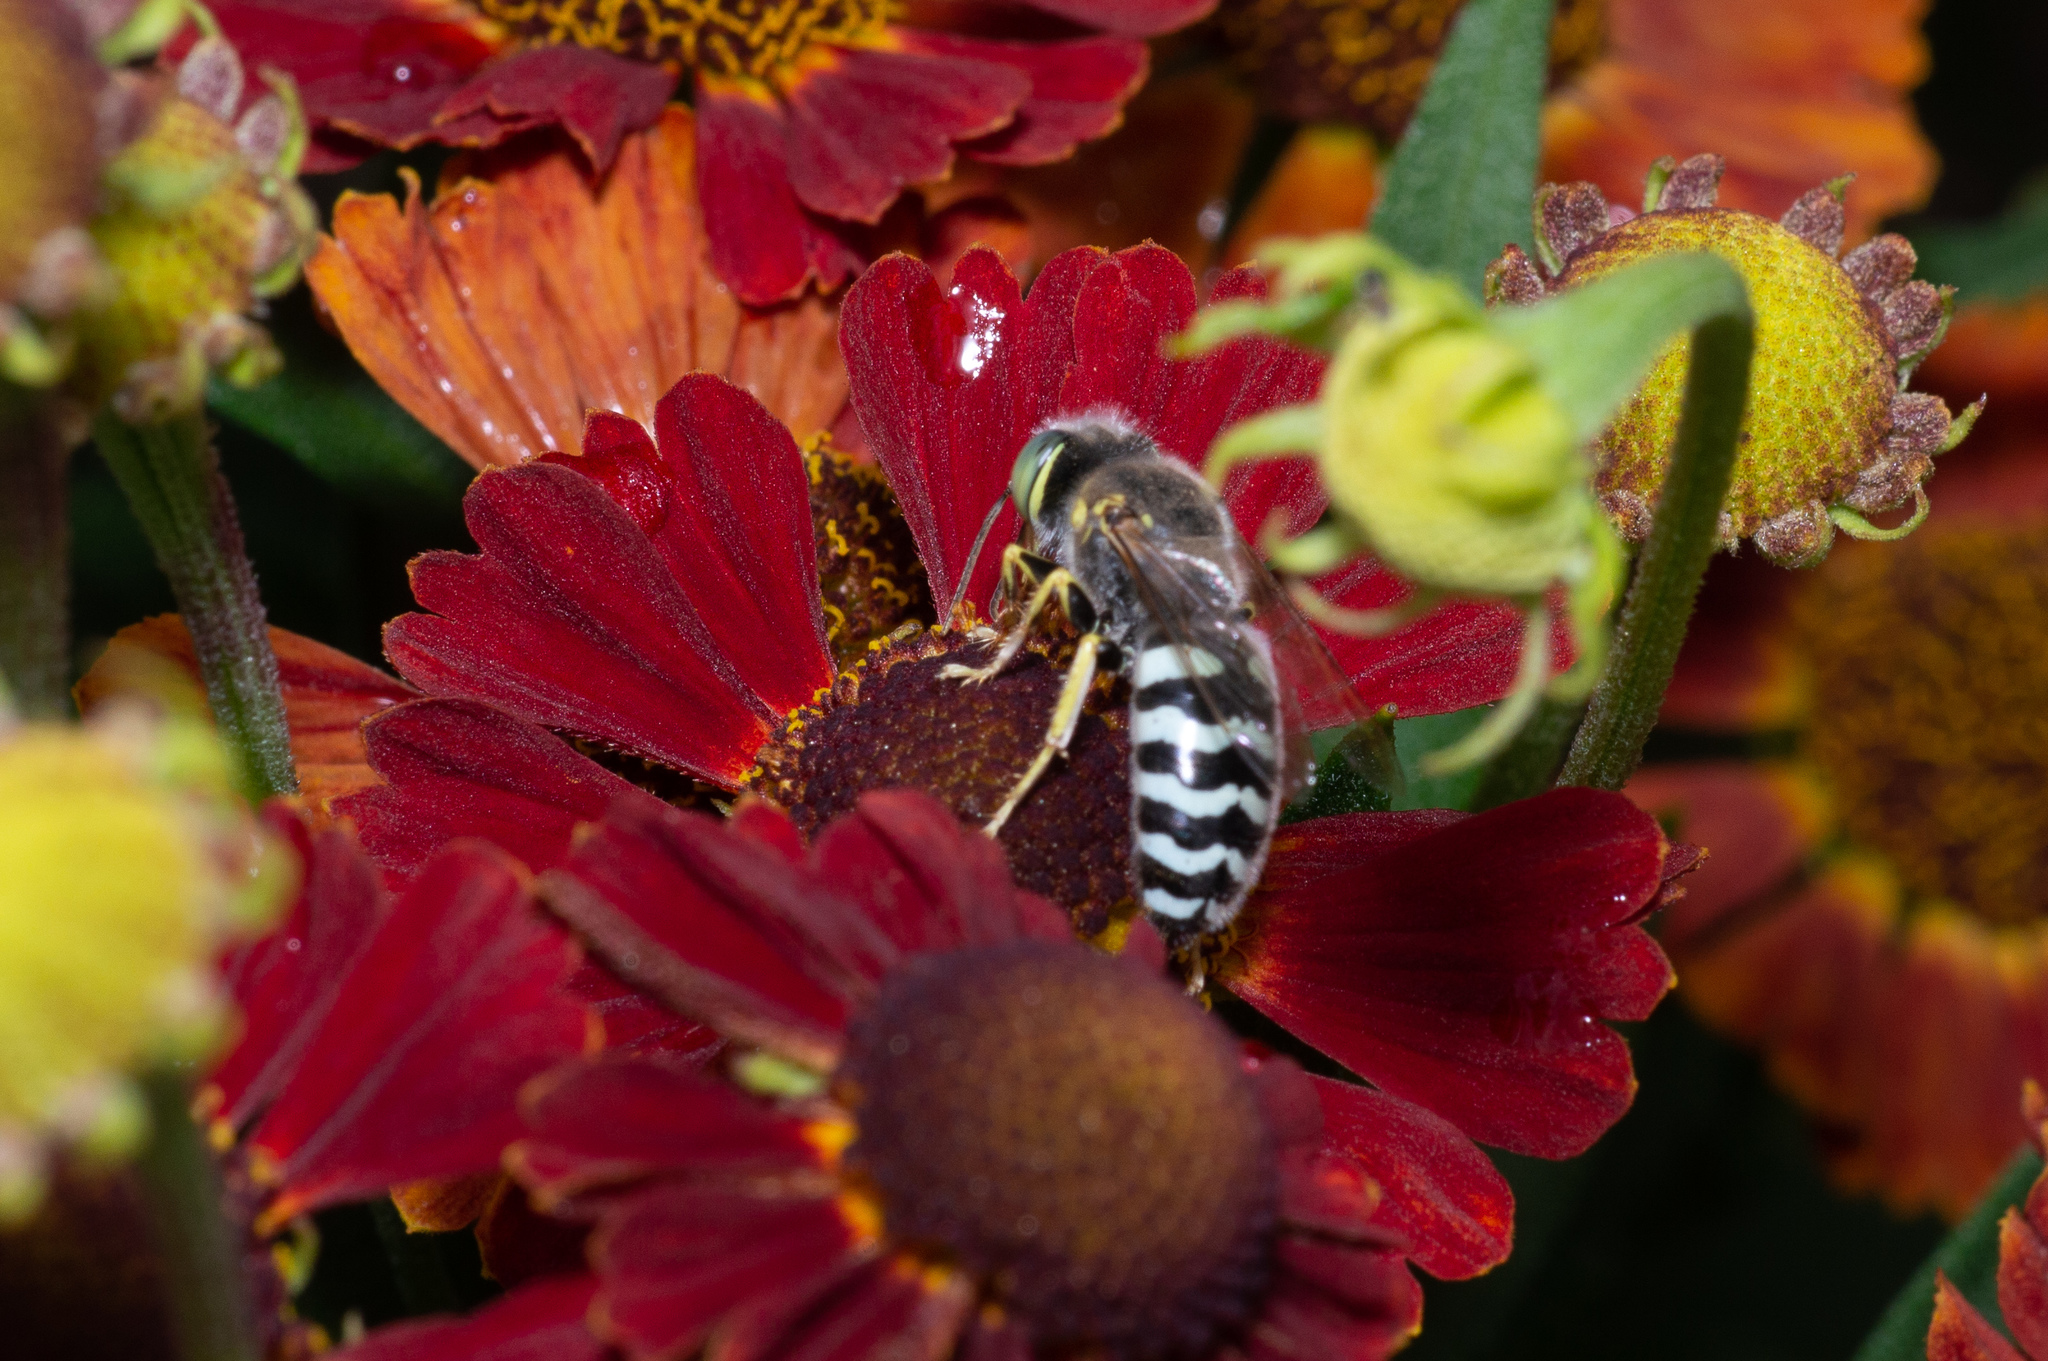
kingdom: Animalia
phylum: Arthropoda
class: Insecta
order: Hymenoptera
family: Crabronidae
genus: Bembix
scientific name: Bembix americana
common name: American sand wasp
